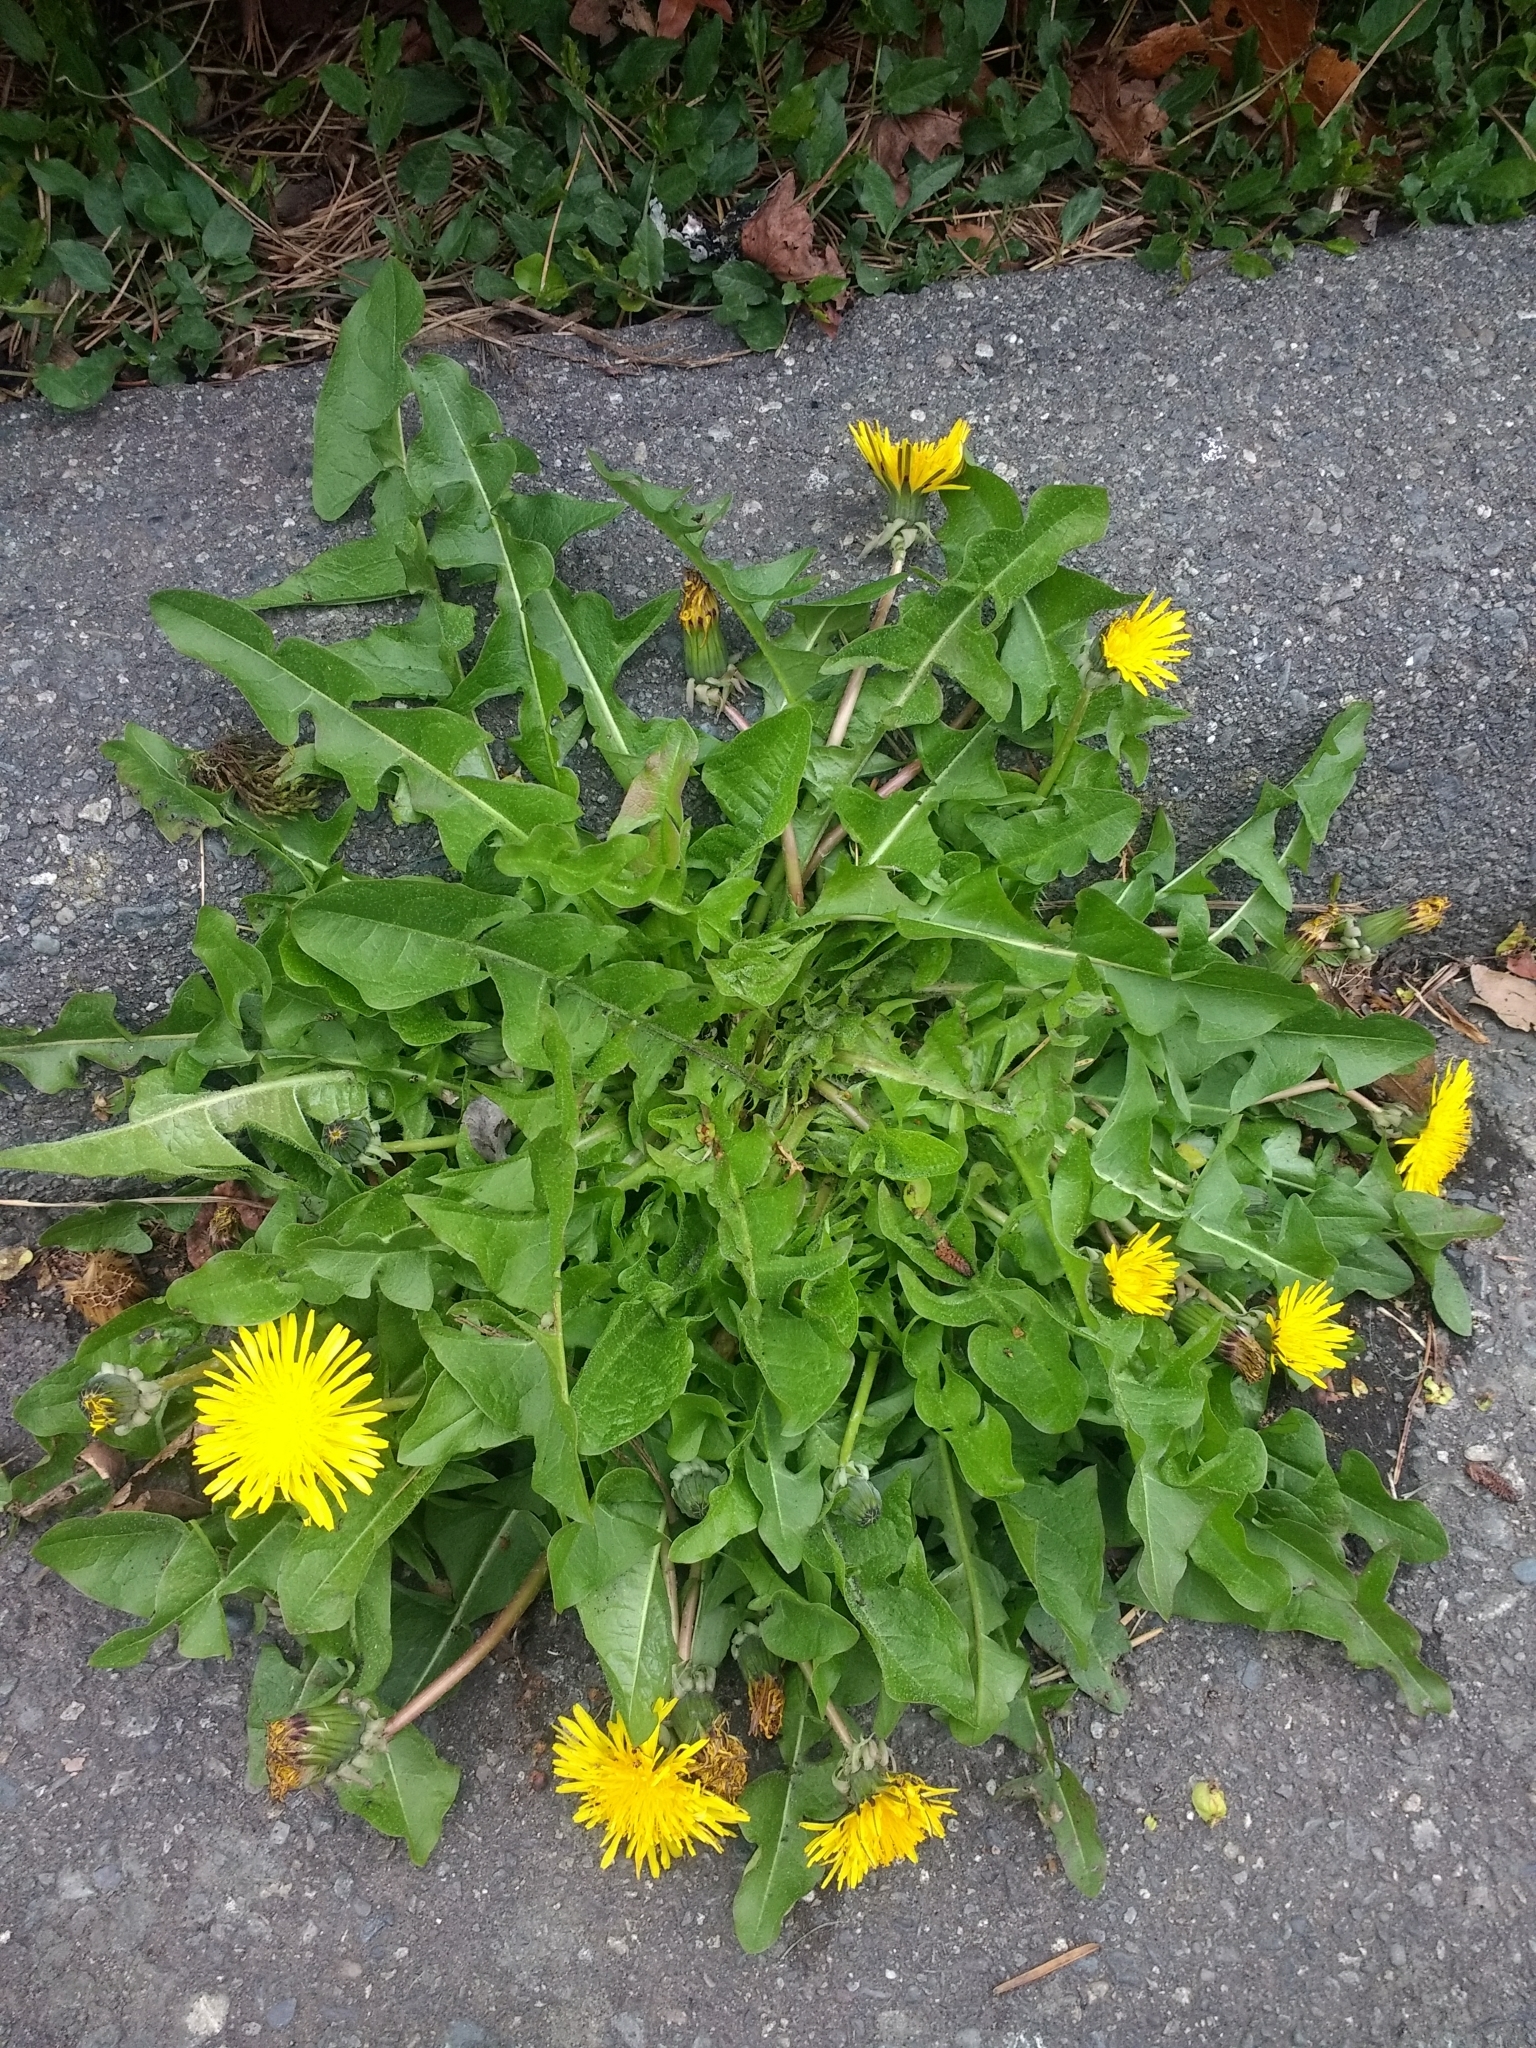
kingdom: Plantae
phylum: Tracheophyta
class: Magnoliopsida
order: Asterales
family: Asteraceae
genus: Taraxacum
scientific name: Taraxacum officinale
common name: Common dandelion
